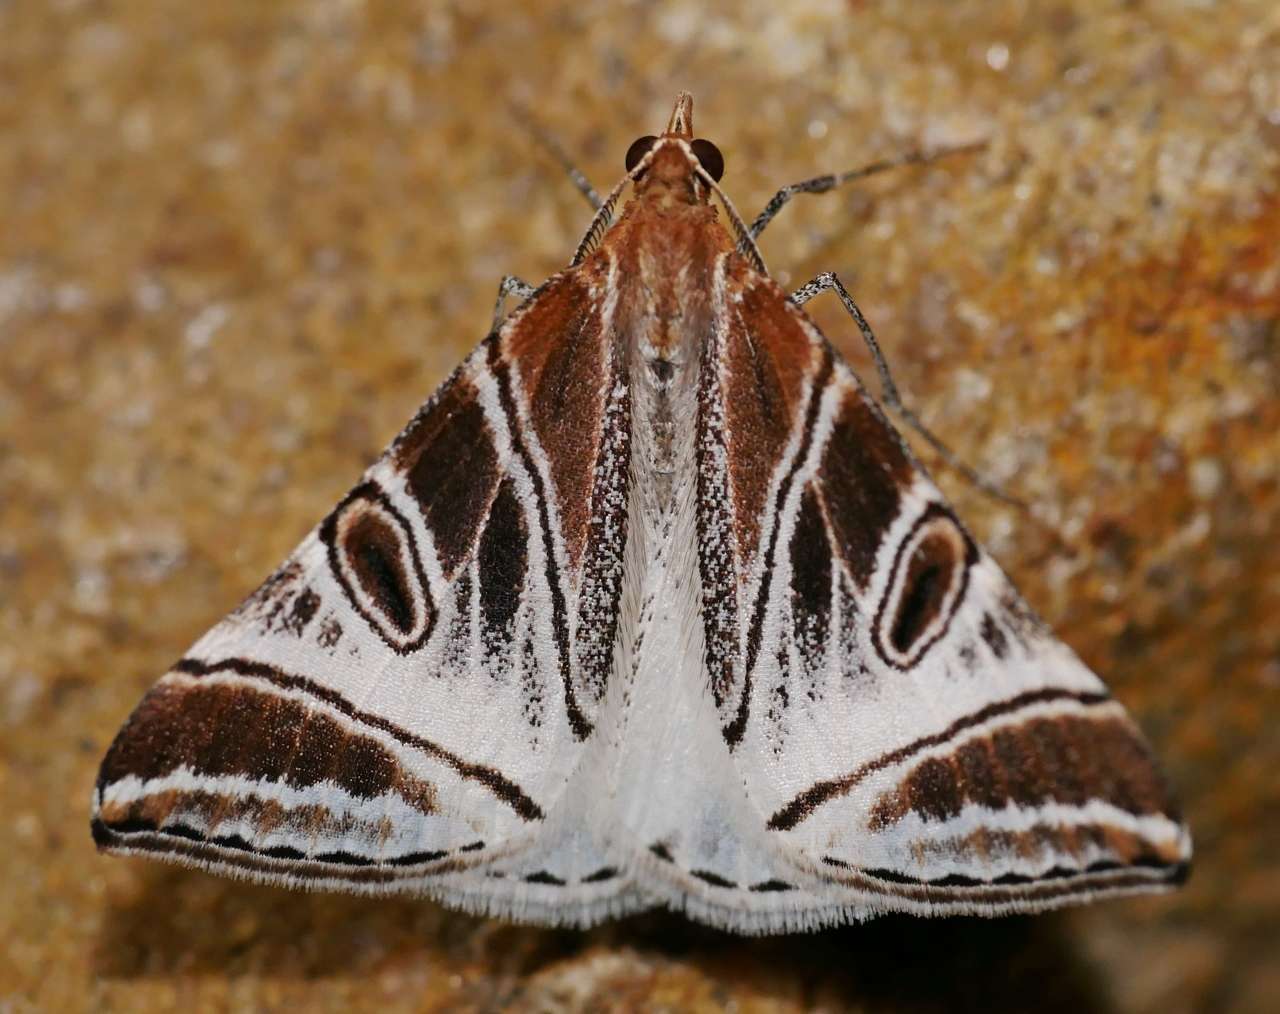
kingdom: Animalia
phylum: Arthropoda
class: Insecta
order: Lepidoptera
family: Geometridae
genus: Phrataria
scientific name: Phrataria replicataria
